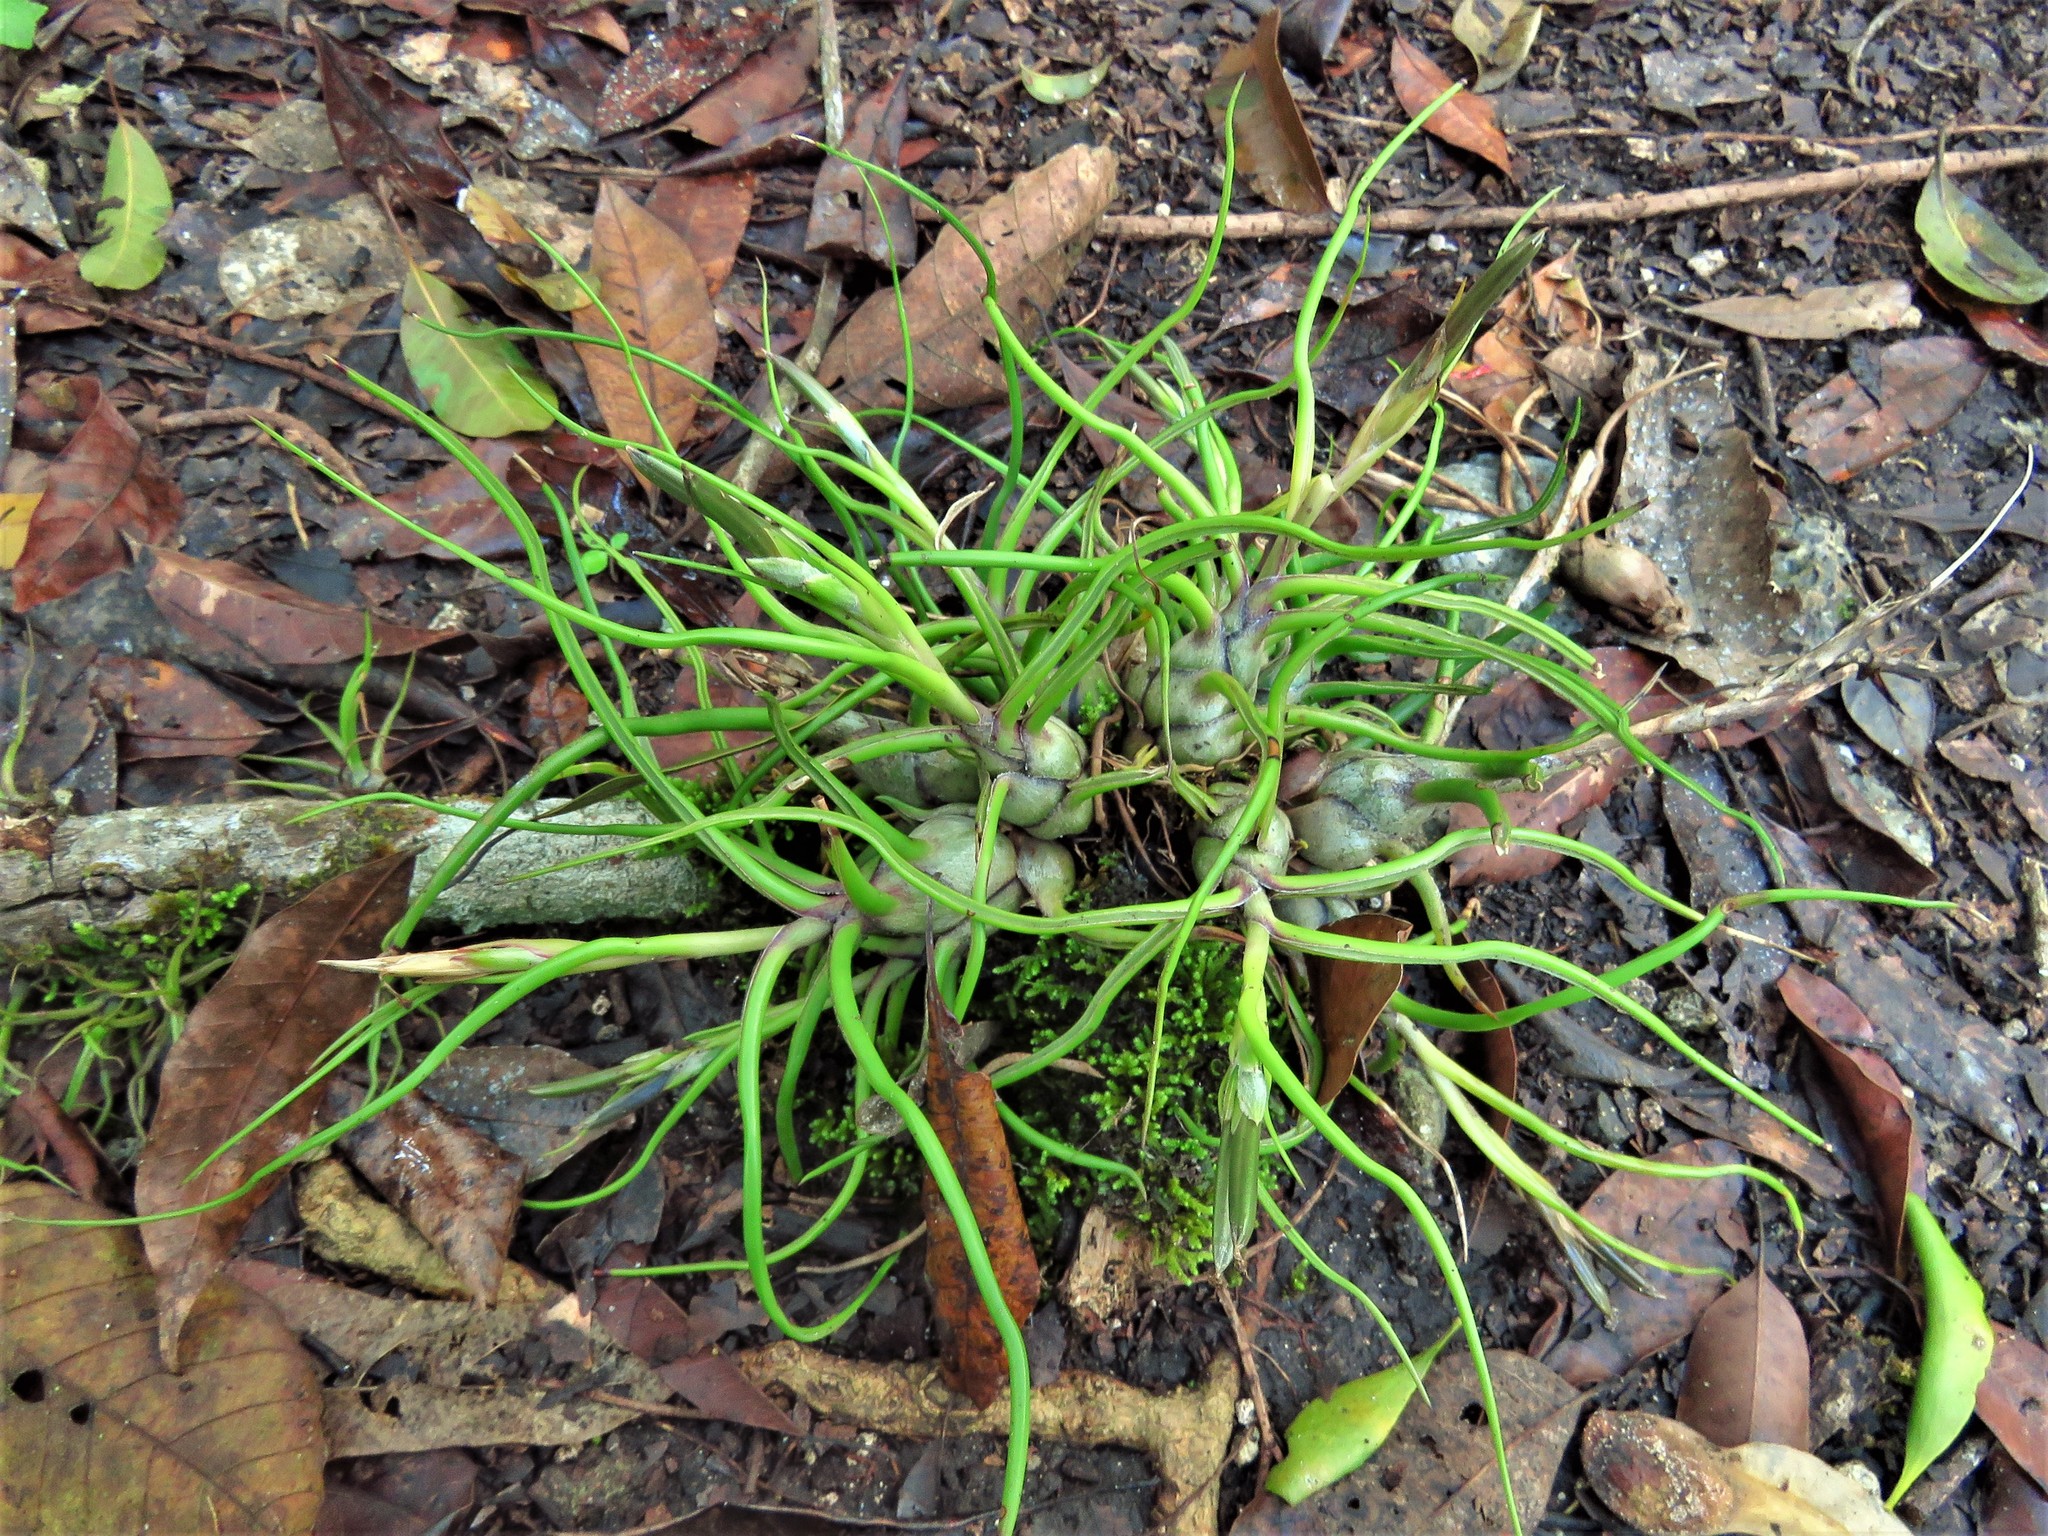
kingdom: Plantae
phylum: Tracheophyta
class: Liliopsida
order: Poales
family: Bromeliaceae
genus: Tillandsia
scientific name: Tillandsia bulbosa
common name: Bulbous airplant
